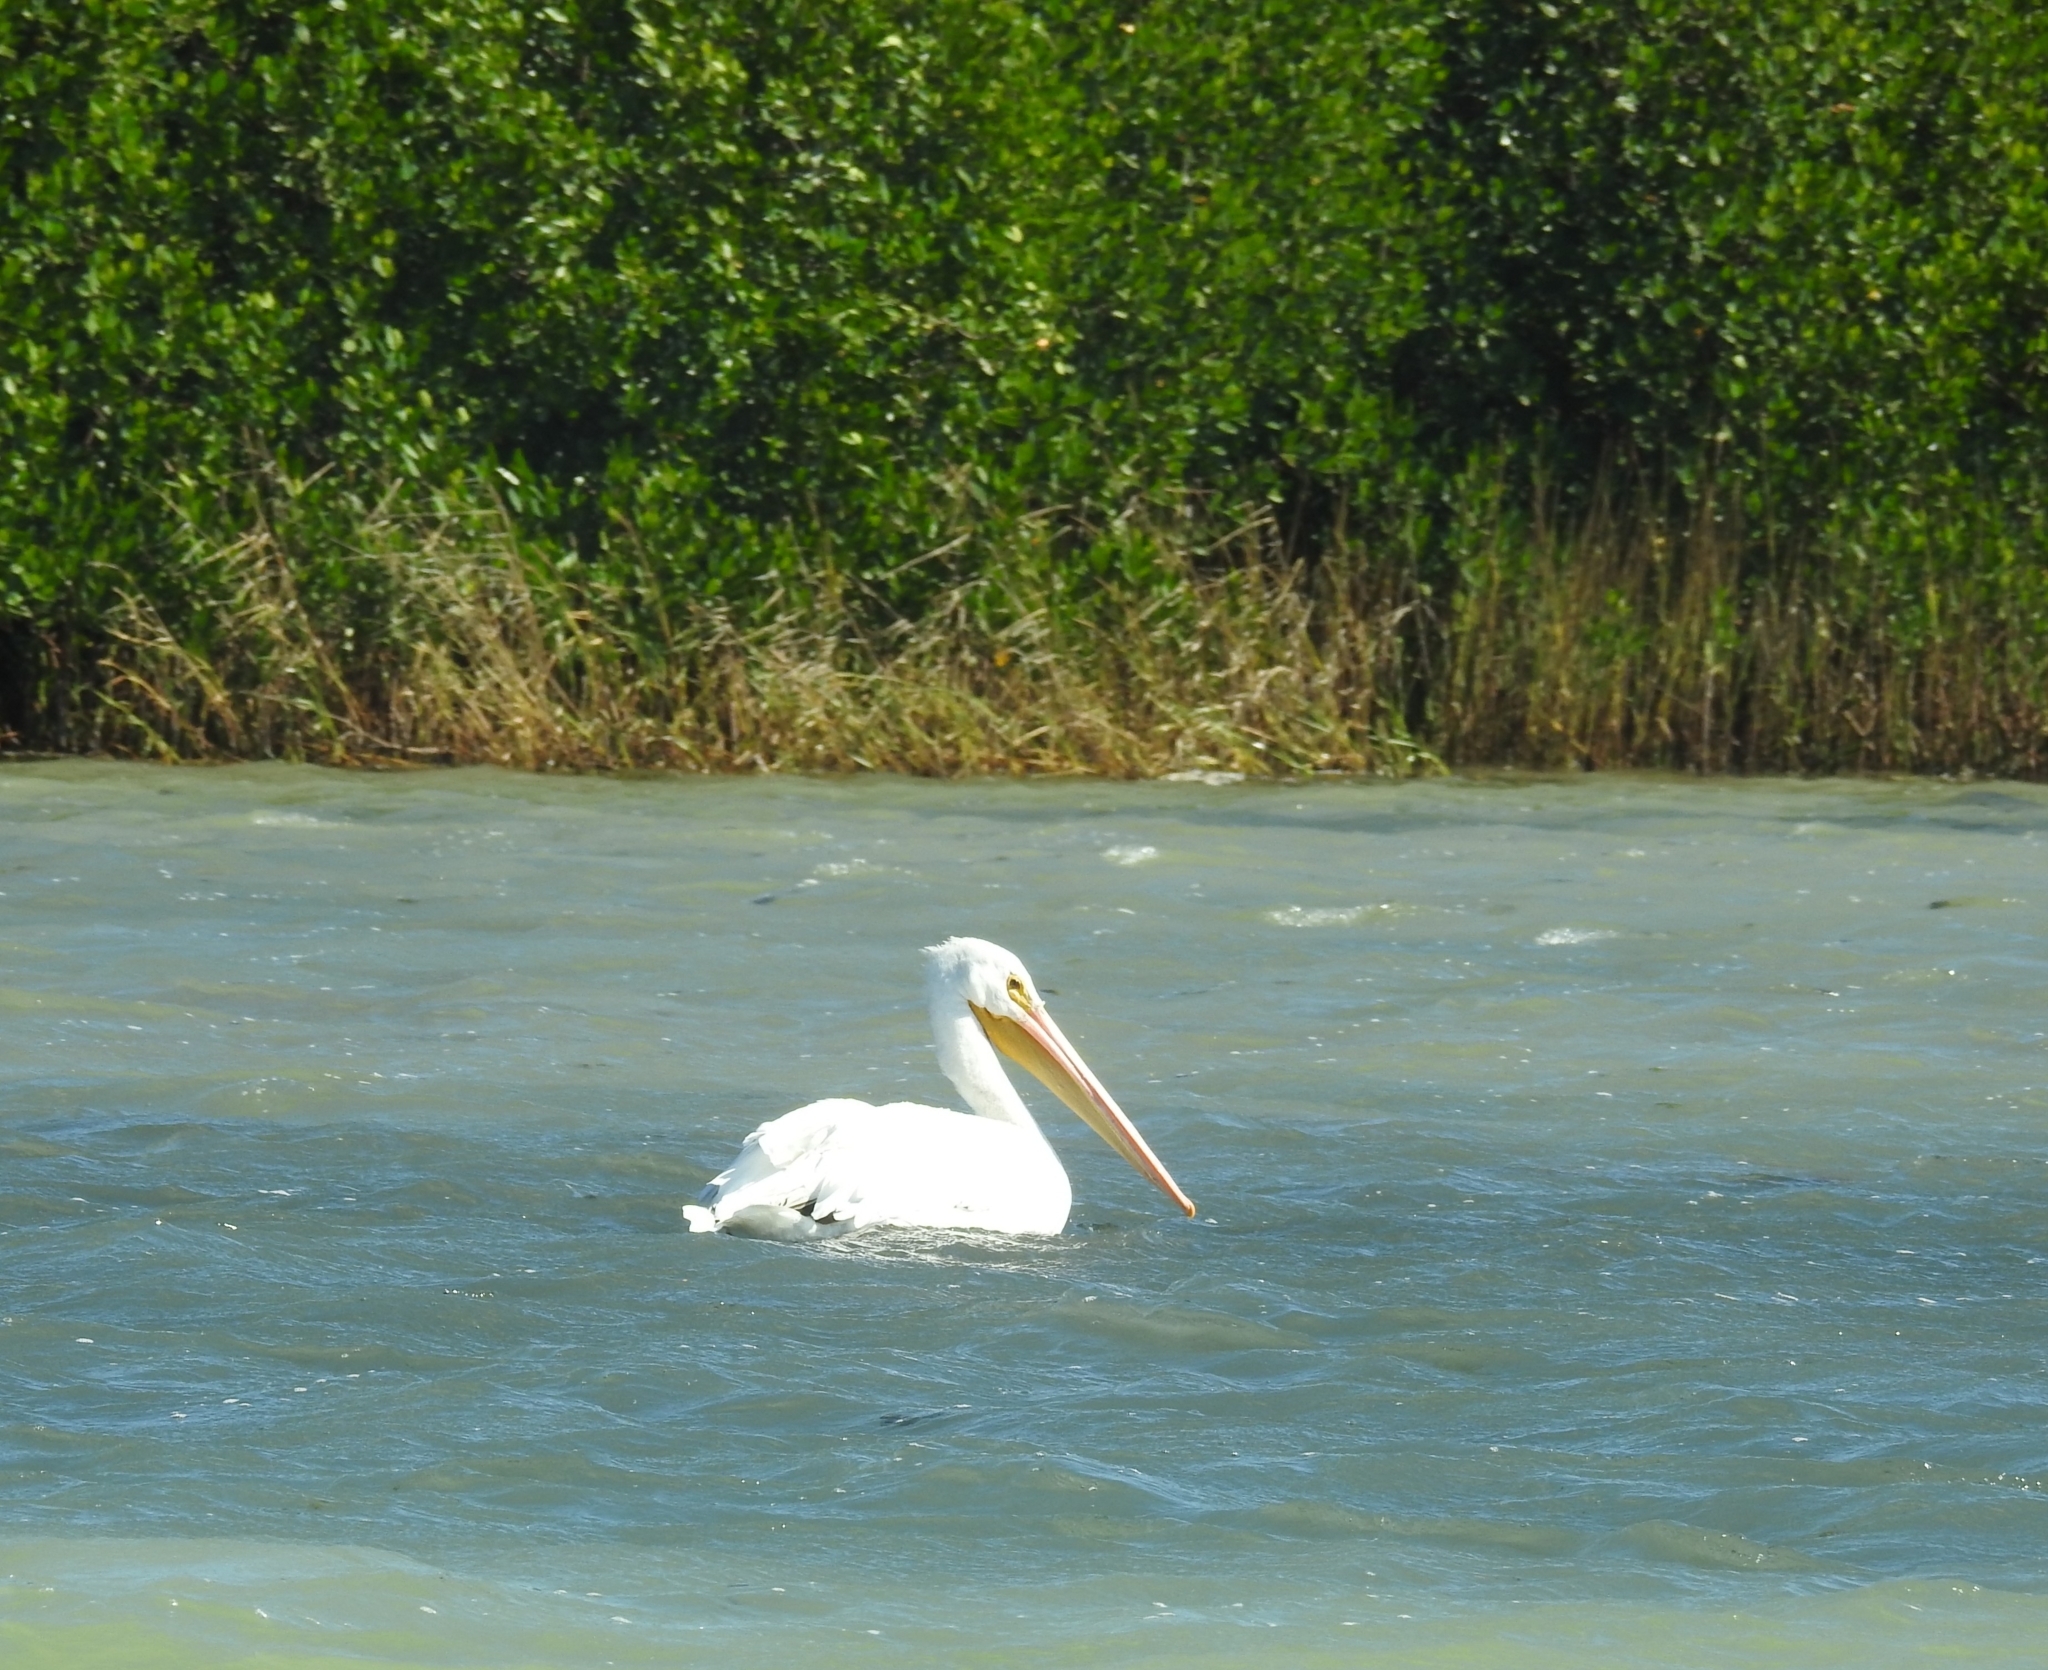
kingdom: Animalia
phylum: Chordata
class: Aves
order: Pelecaniformes
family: Pelecanidae
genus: Pelecanus
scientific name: Pelecanus erythrorhynchos
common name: American white pelican
